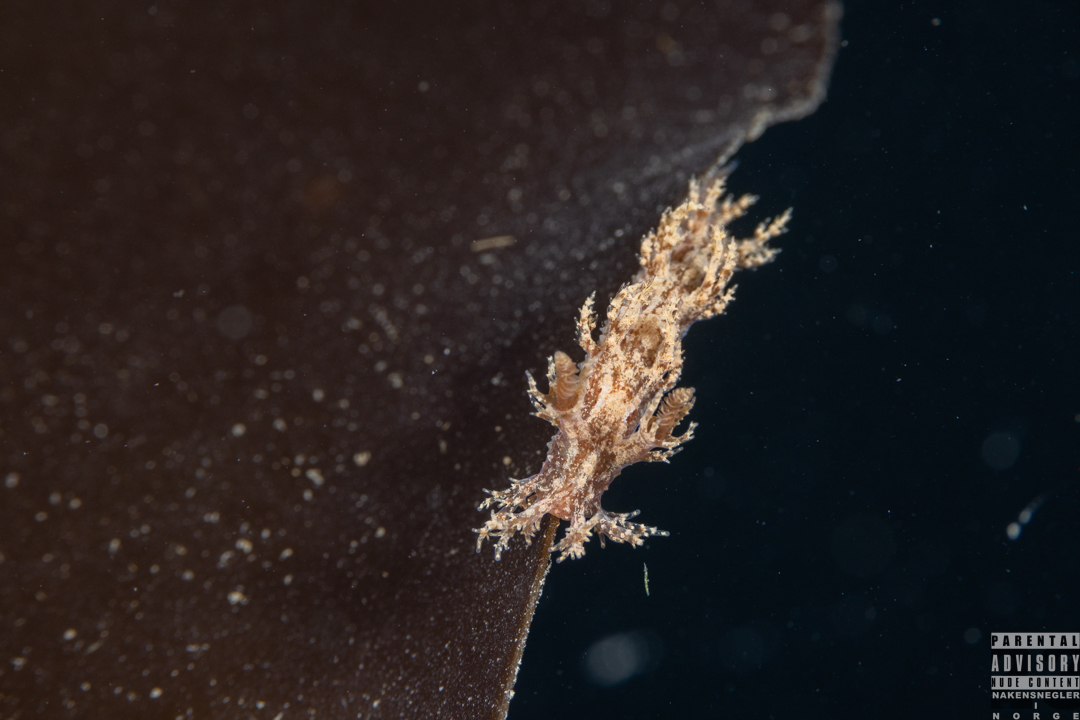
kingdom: Animalia
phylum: Mollusca
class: Gastropoda
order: Nudibranchia
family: Dendronotidae
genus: Dendronotus
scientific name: Dendronotus frondosus
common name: Bushy-backed nudibranch
